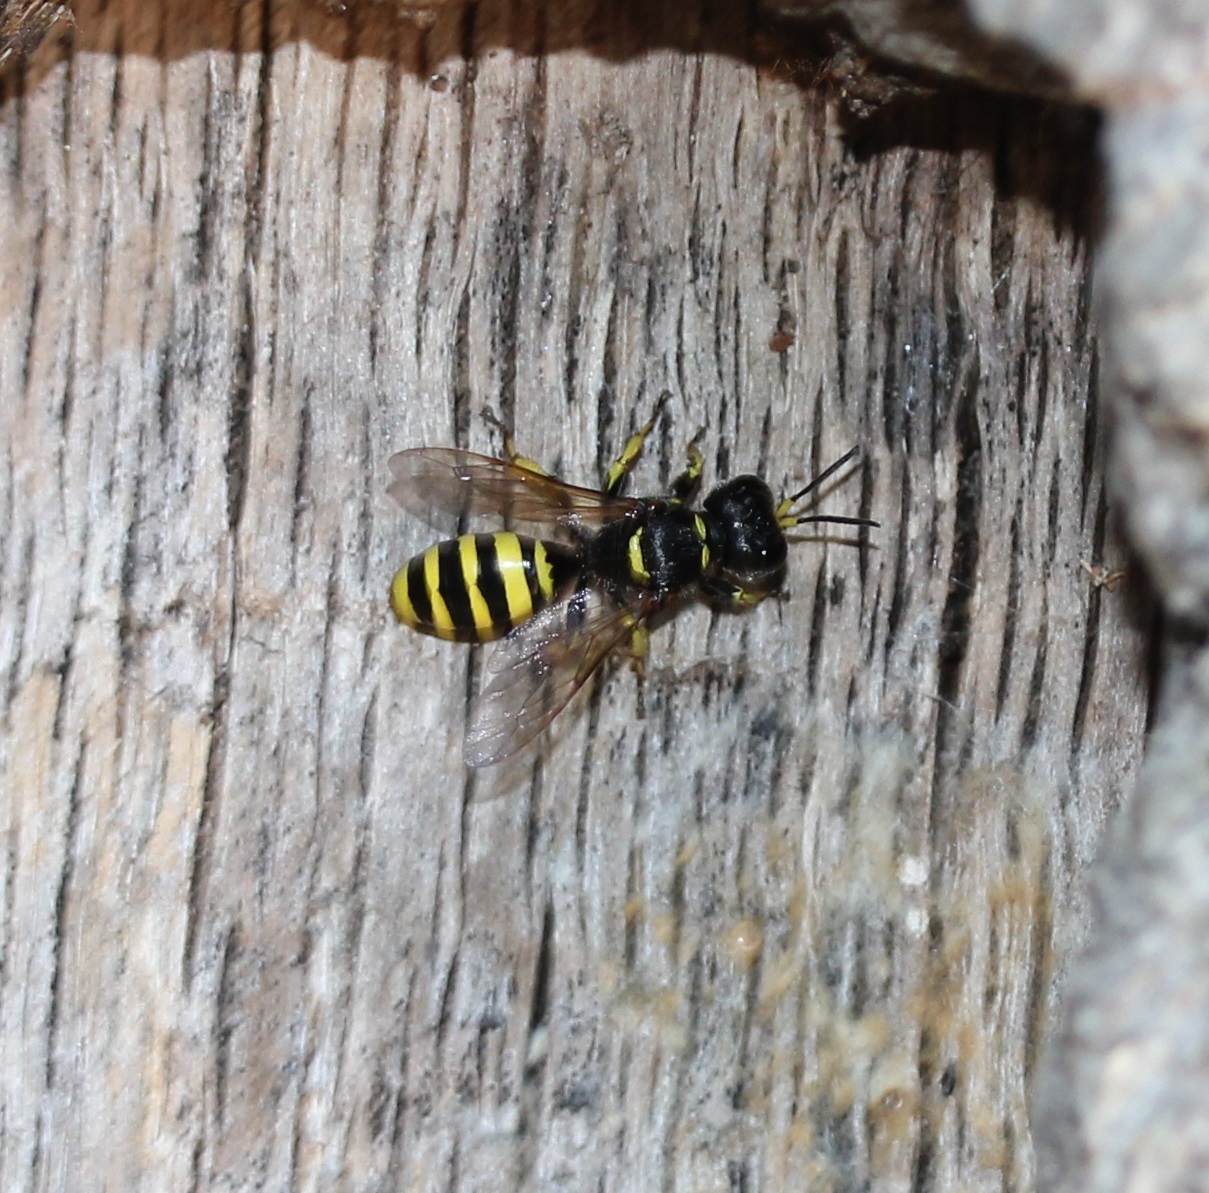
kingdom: Animalia
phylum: Arthropoda
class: Insecta
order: Hymenoptera
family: Crabronidae
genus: Ectemnius
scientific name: Ectemnius cephalotes
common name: Sphecid wasp
